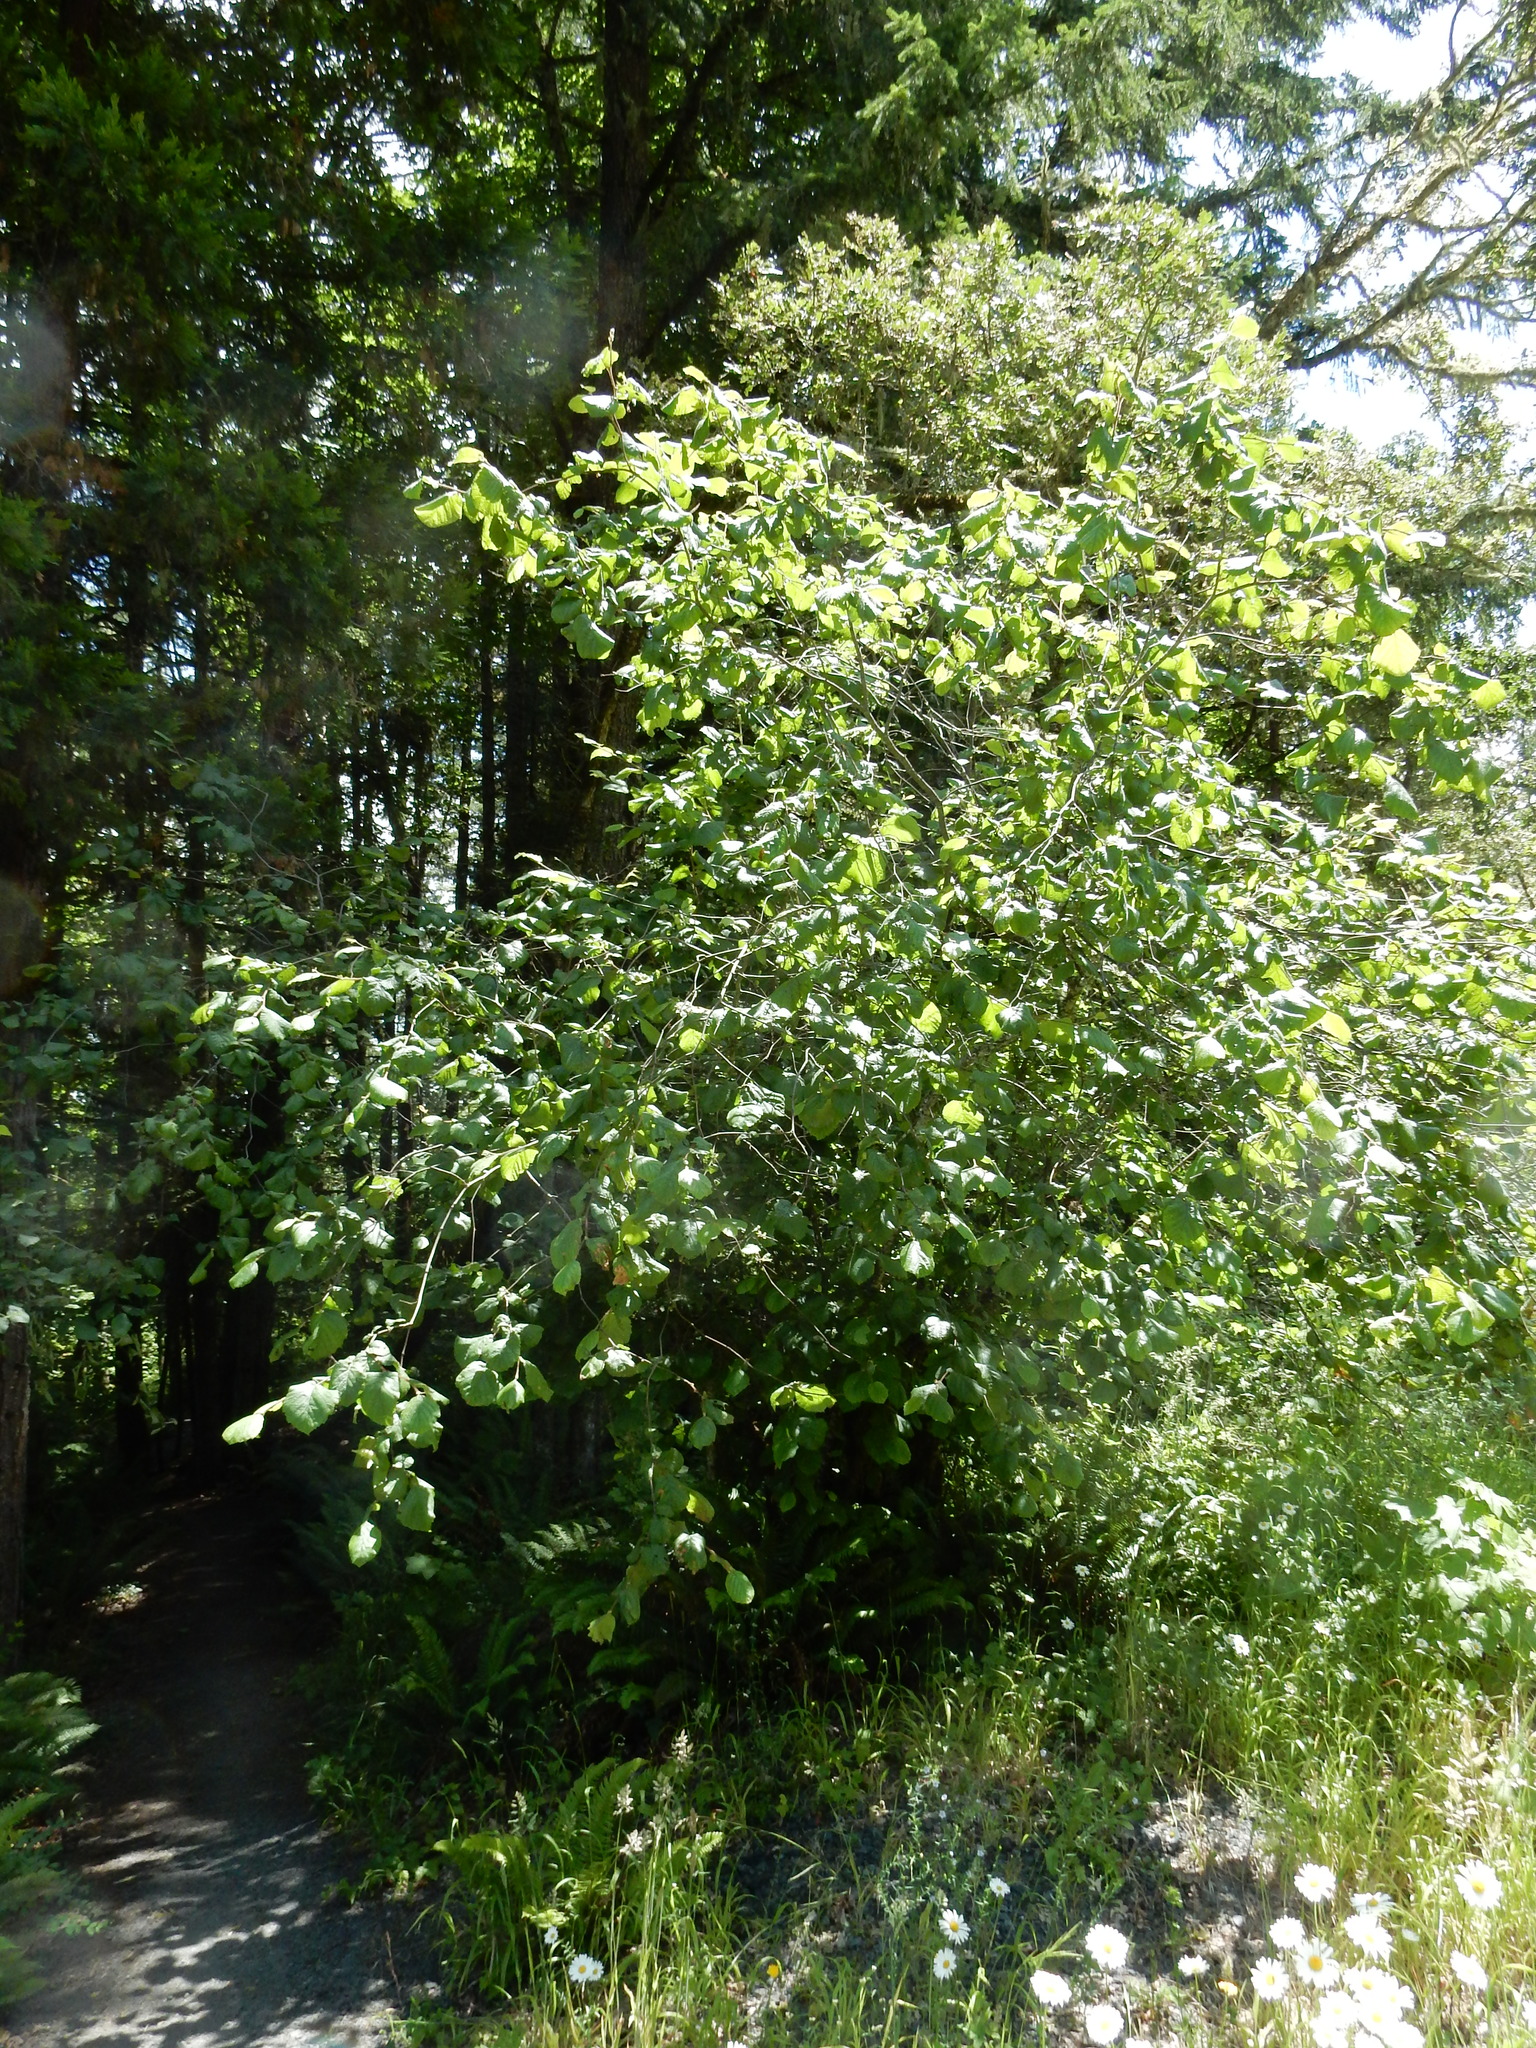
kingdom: Plantae
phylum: Tracheophyta
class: Magnoliopsida
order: Fagales
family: Betulaceae
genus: Corylus
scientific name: Corylus cornuta
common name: Beaked hazel
